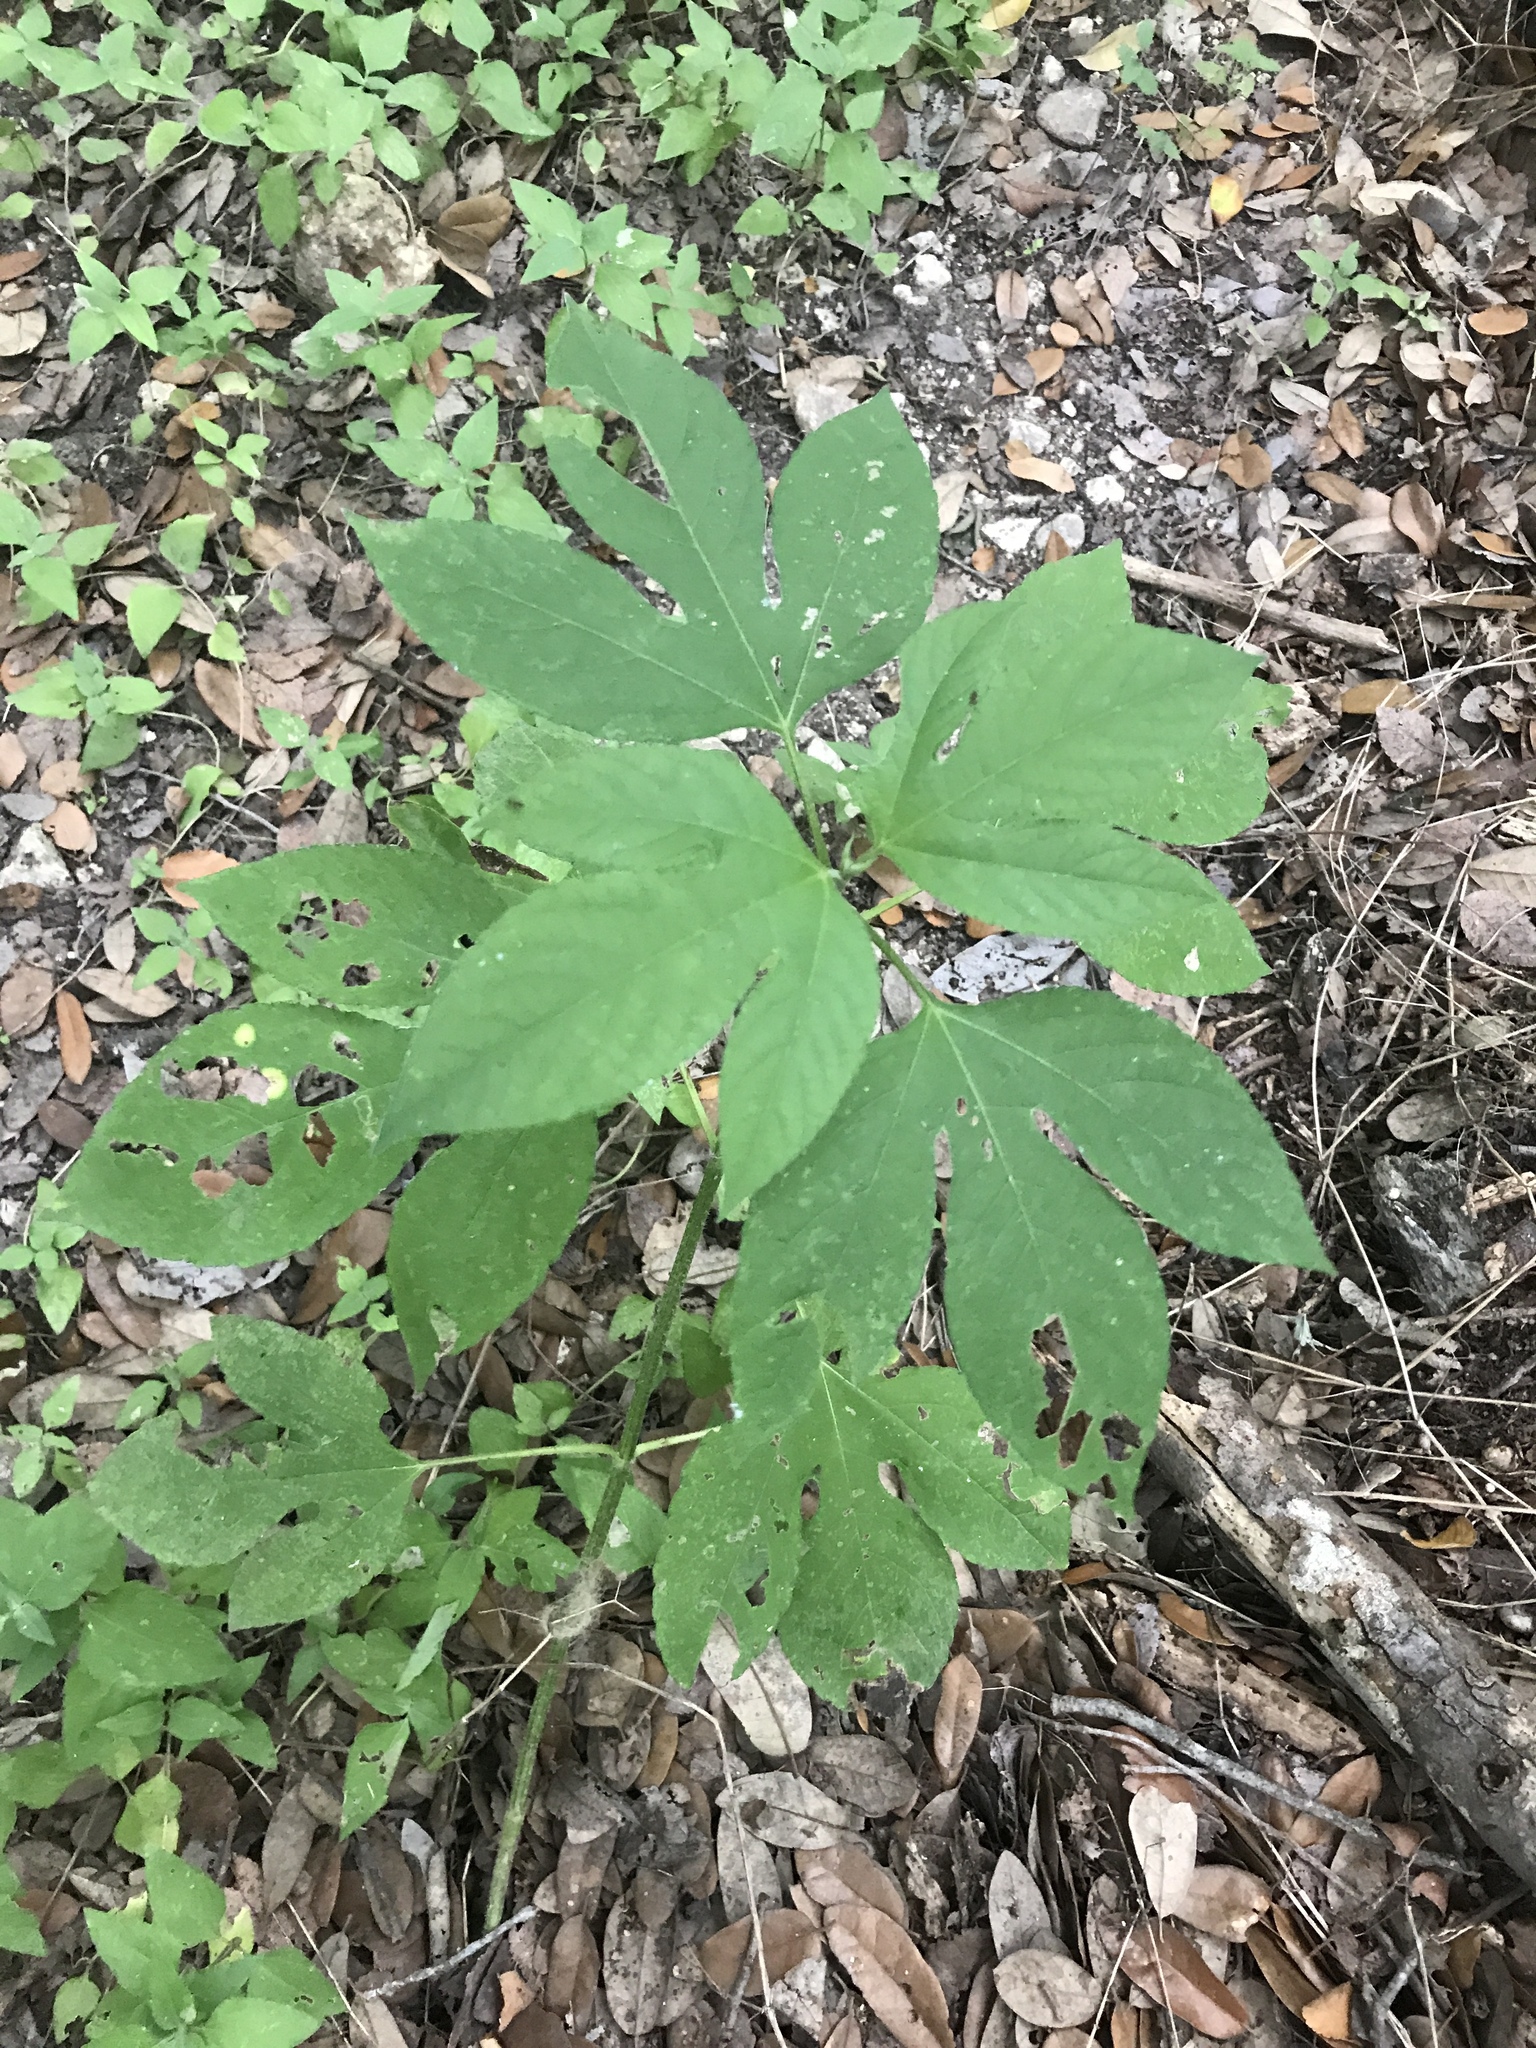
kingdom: Plantae
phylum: Tracheophyta
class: Magnoliopsida
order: Asterales
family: Asteraceae
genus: Ambrosia
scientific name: Ambrosia trifida
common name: Giant ragweed
